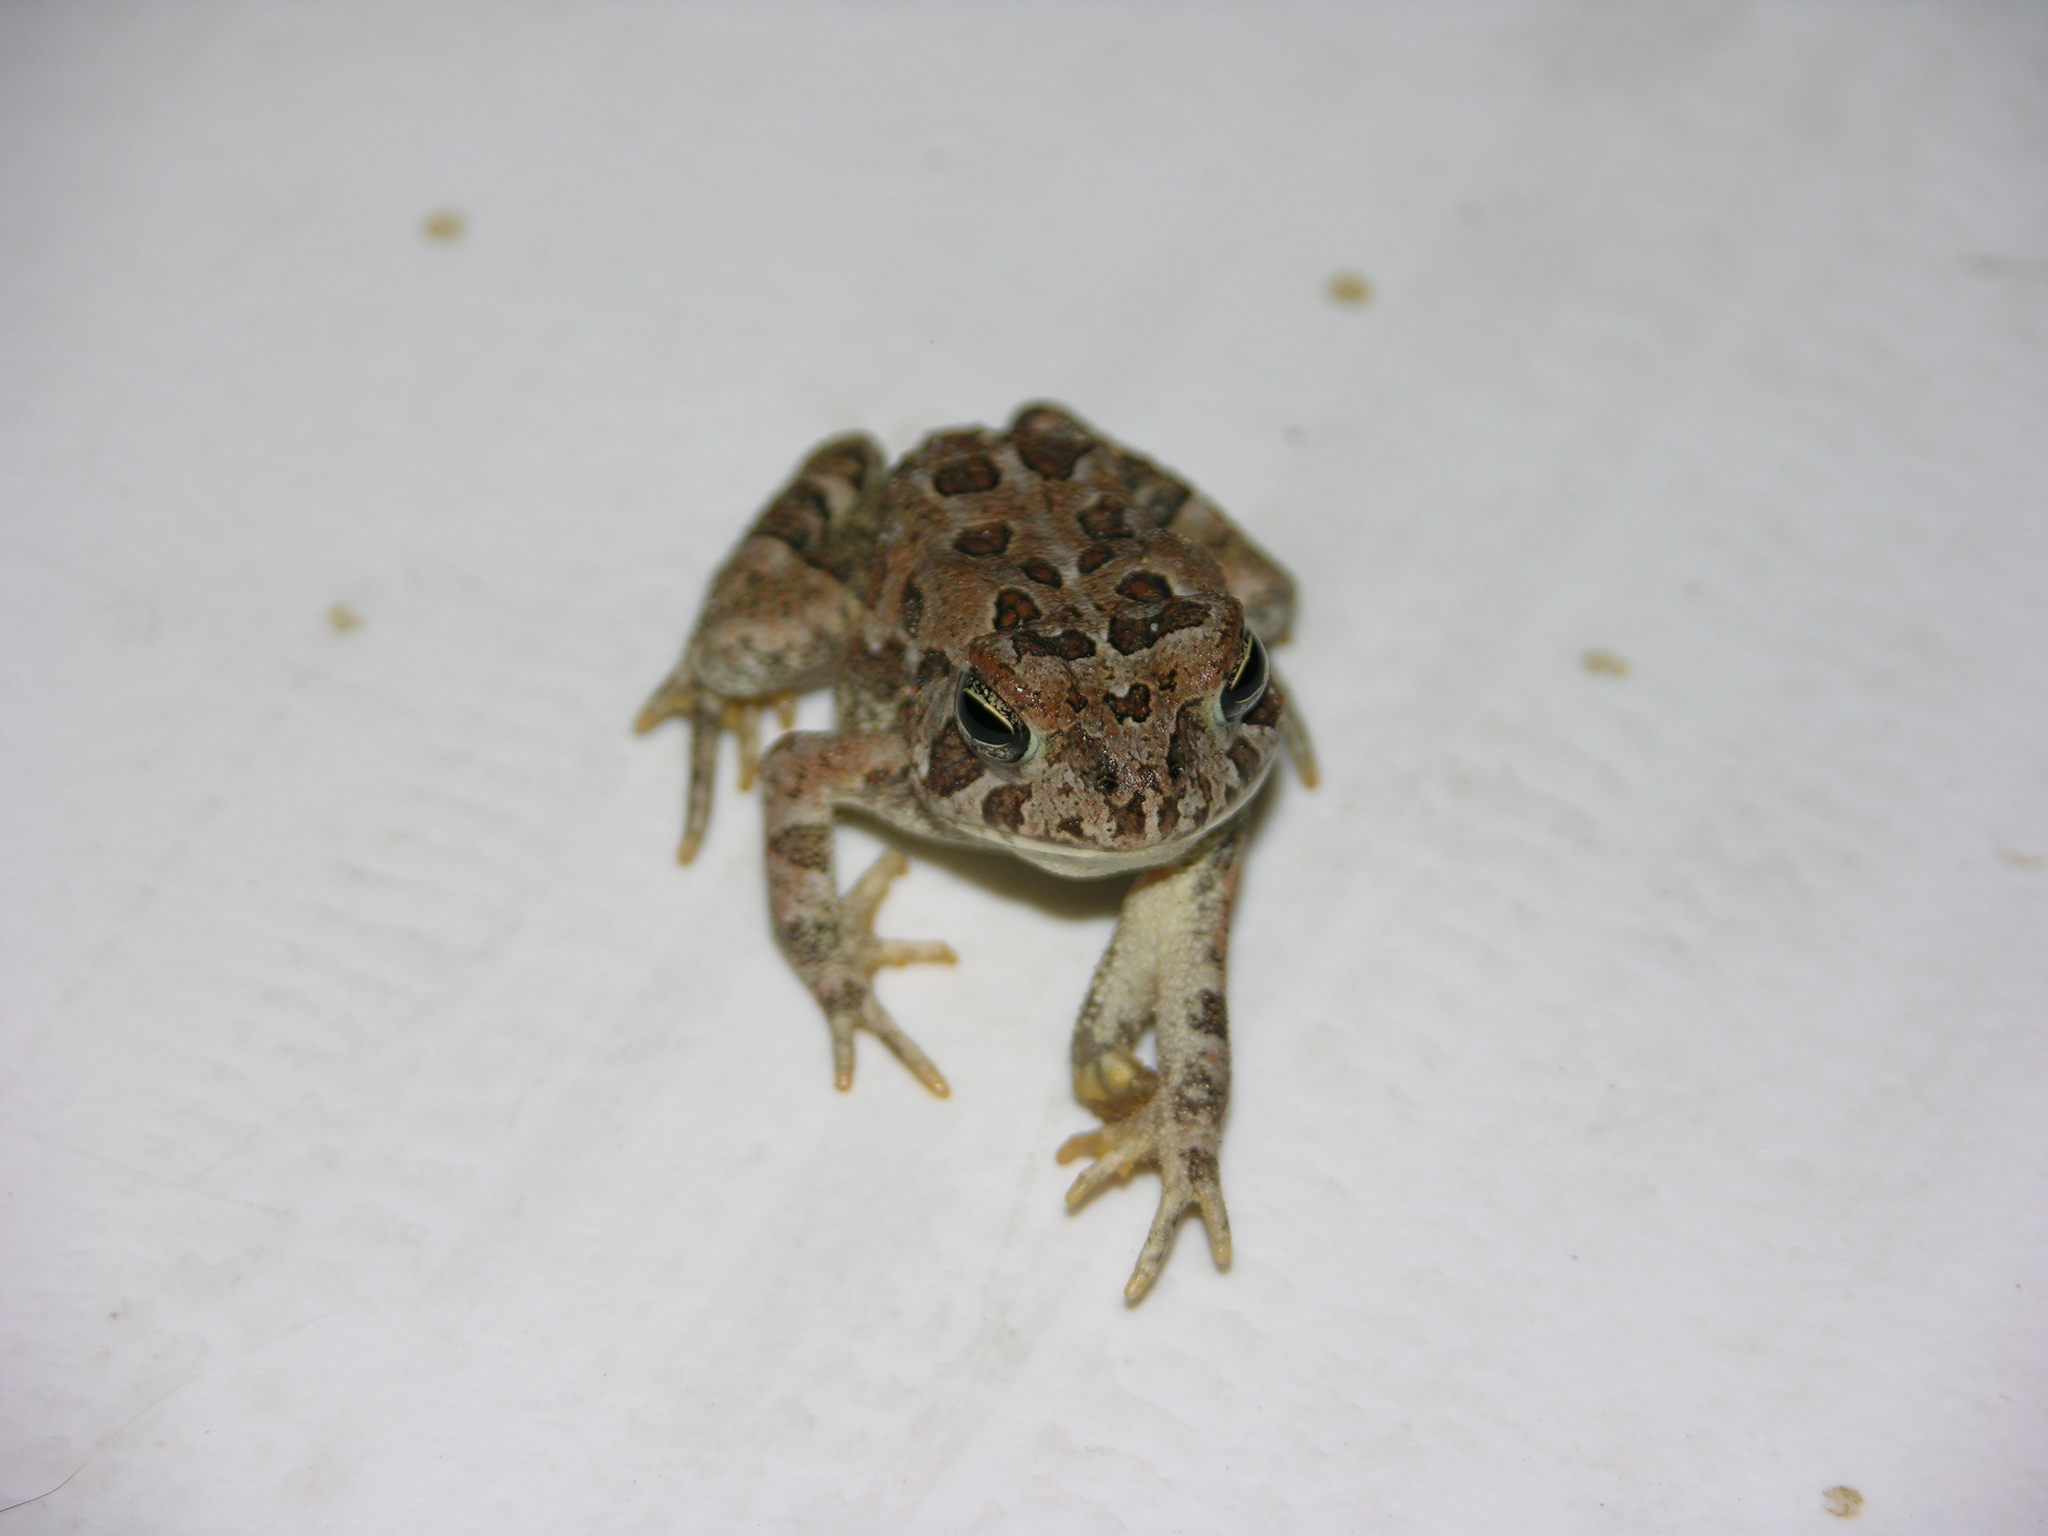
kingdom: Animalia
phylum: Chordata
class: Amphibia
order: Anura
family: Bufonidae
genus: Anaxyrus
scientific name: Anaxyrus fowleri
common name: Fowler's toad
